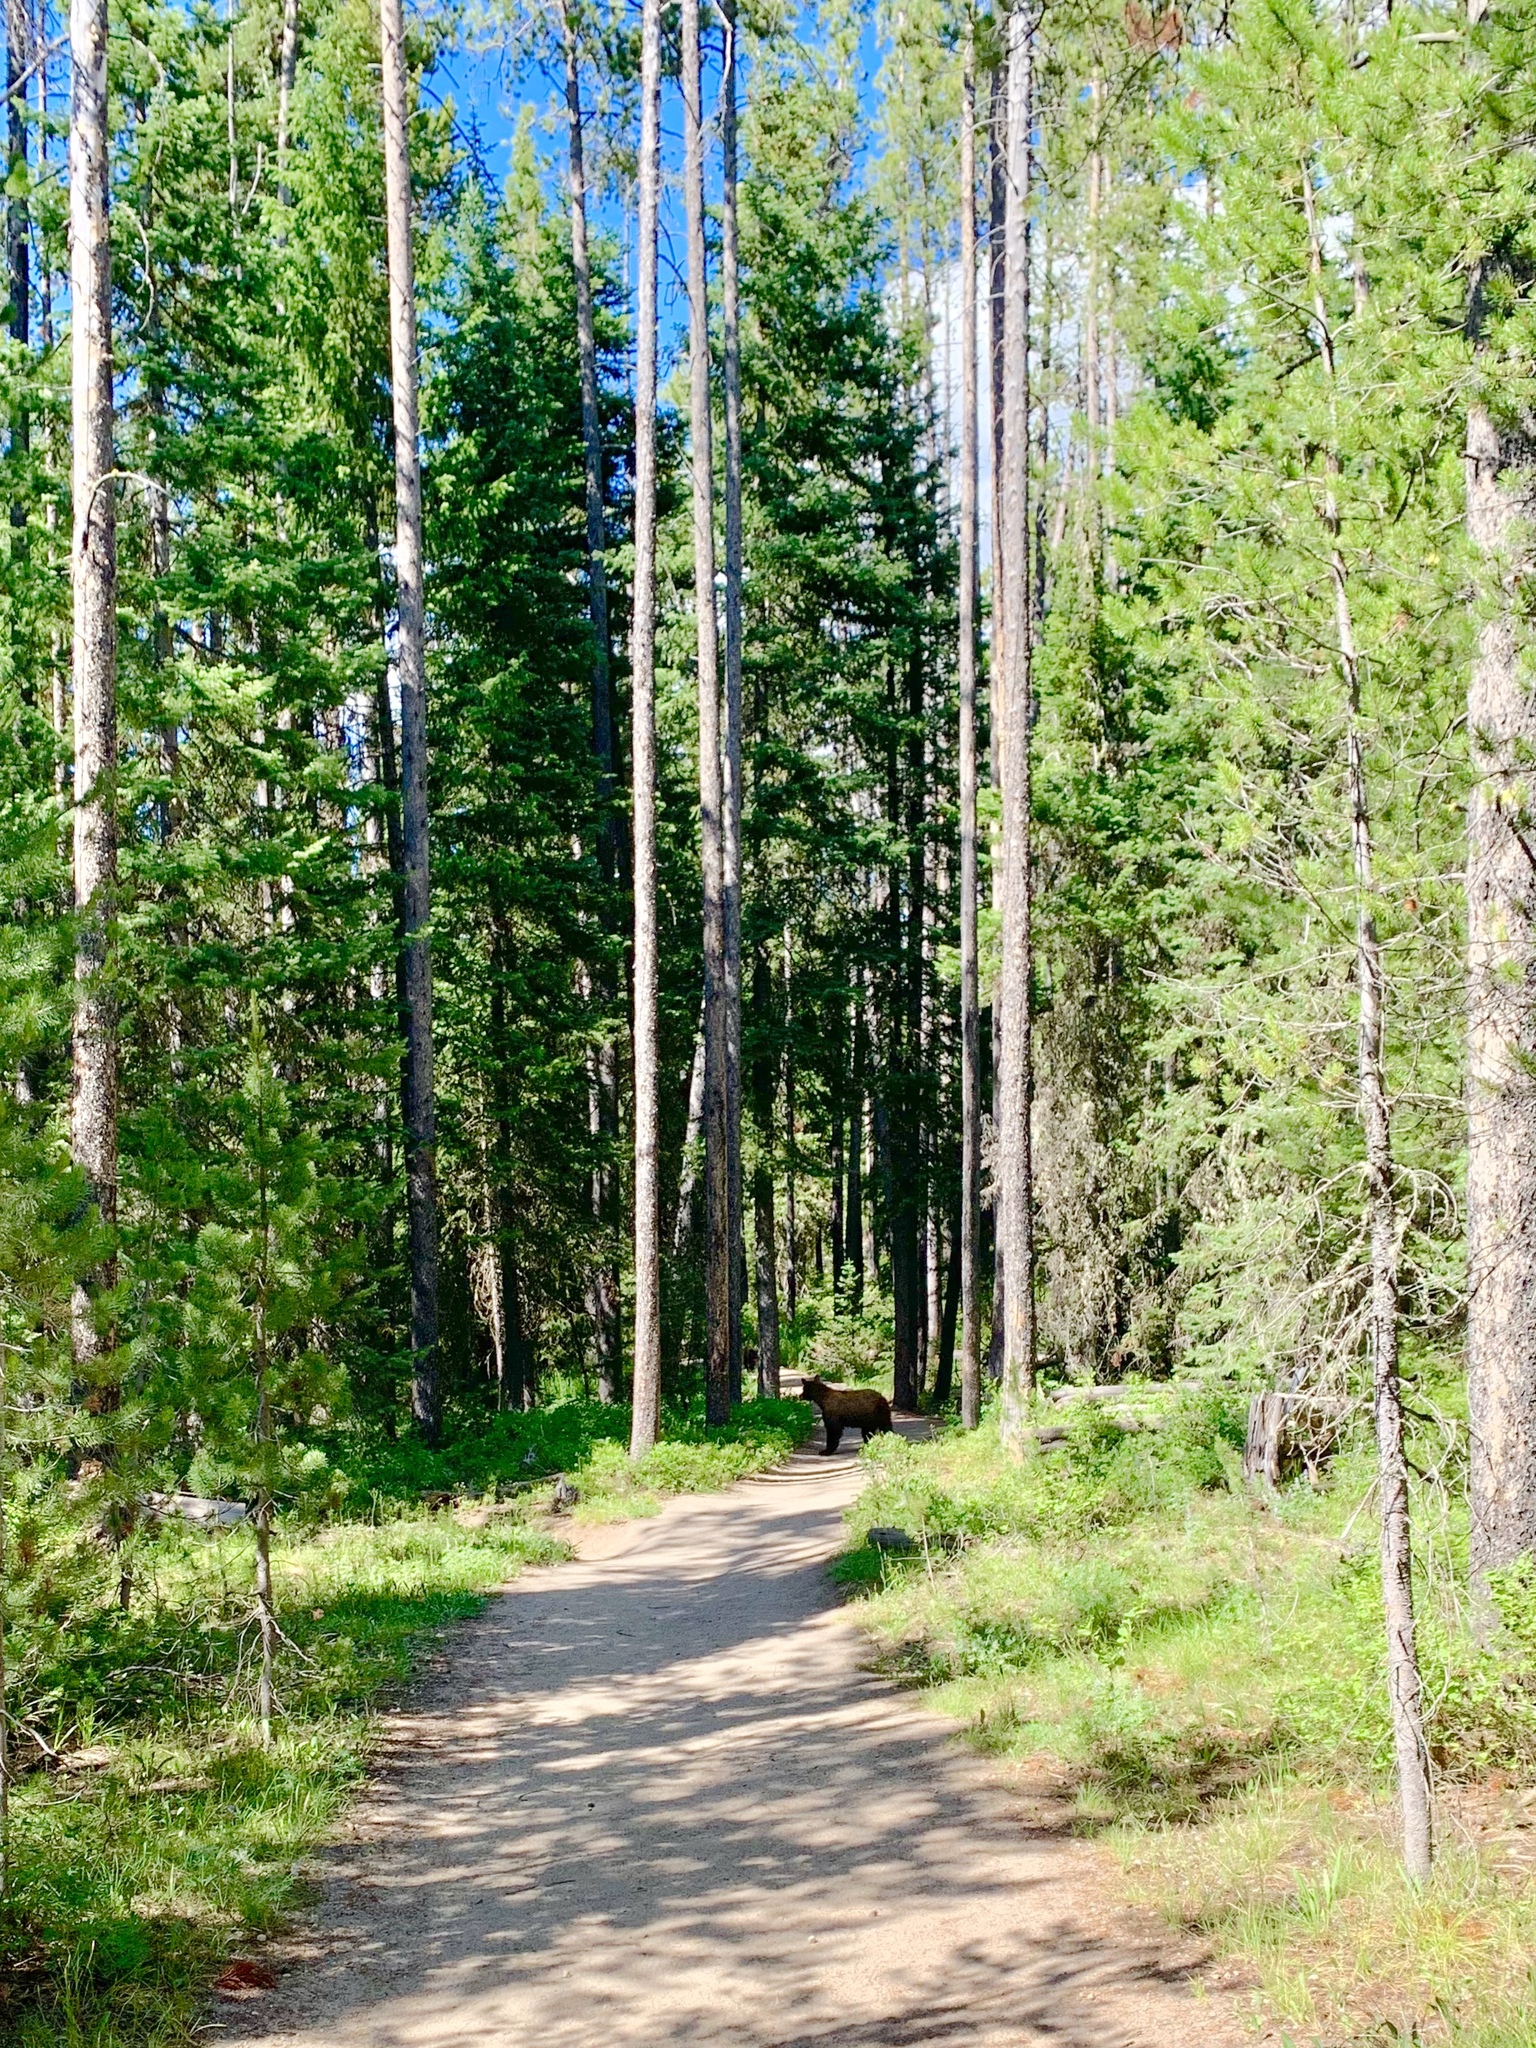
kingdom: Animalia
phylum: Chordata
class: Mammalia
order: Carnivora
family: Ursidae
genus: Ursus
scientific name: Ursus americanus
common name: American black bear
